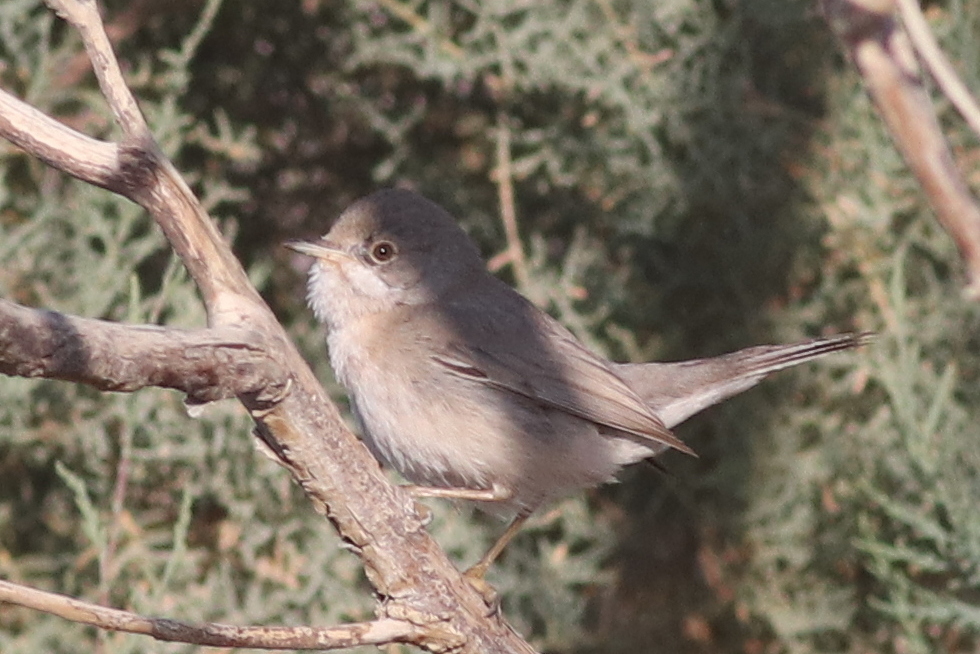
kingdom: Animalia
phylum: Chordata
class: Aves
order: Passeriformes
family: Sylviidae
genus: Sylvia
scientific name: Sylvia mystacea
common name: Menetries's warbler
